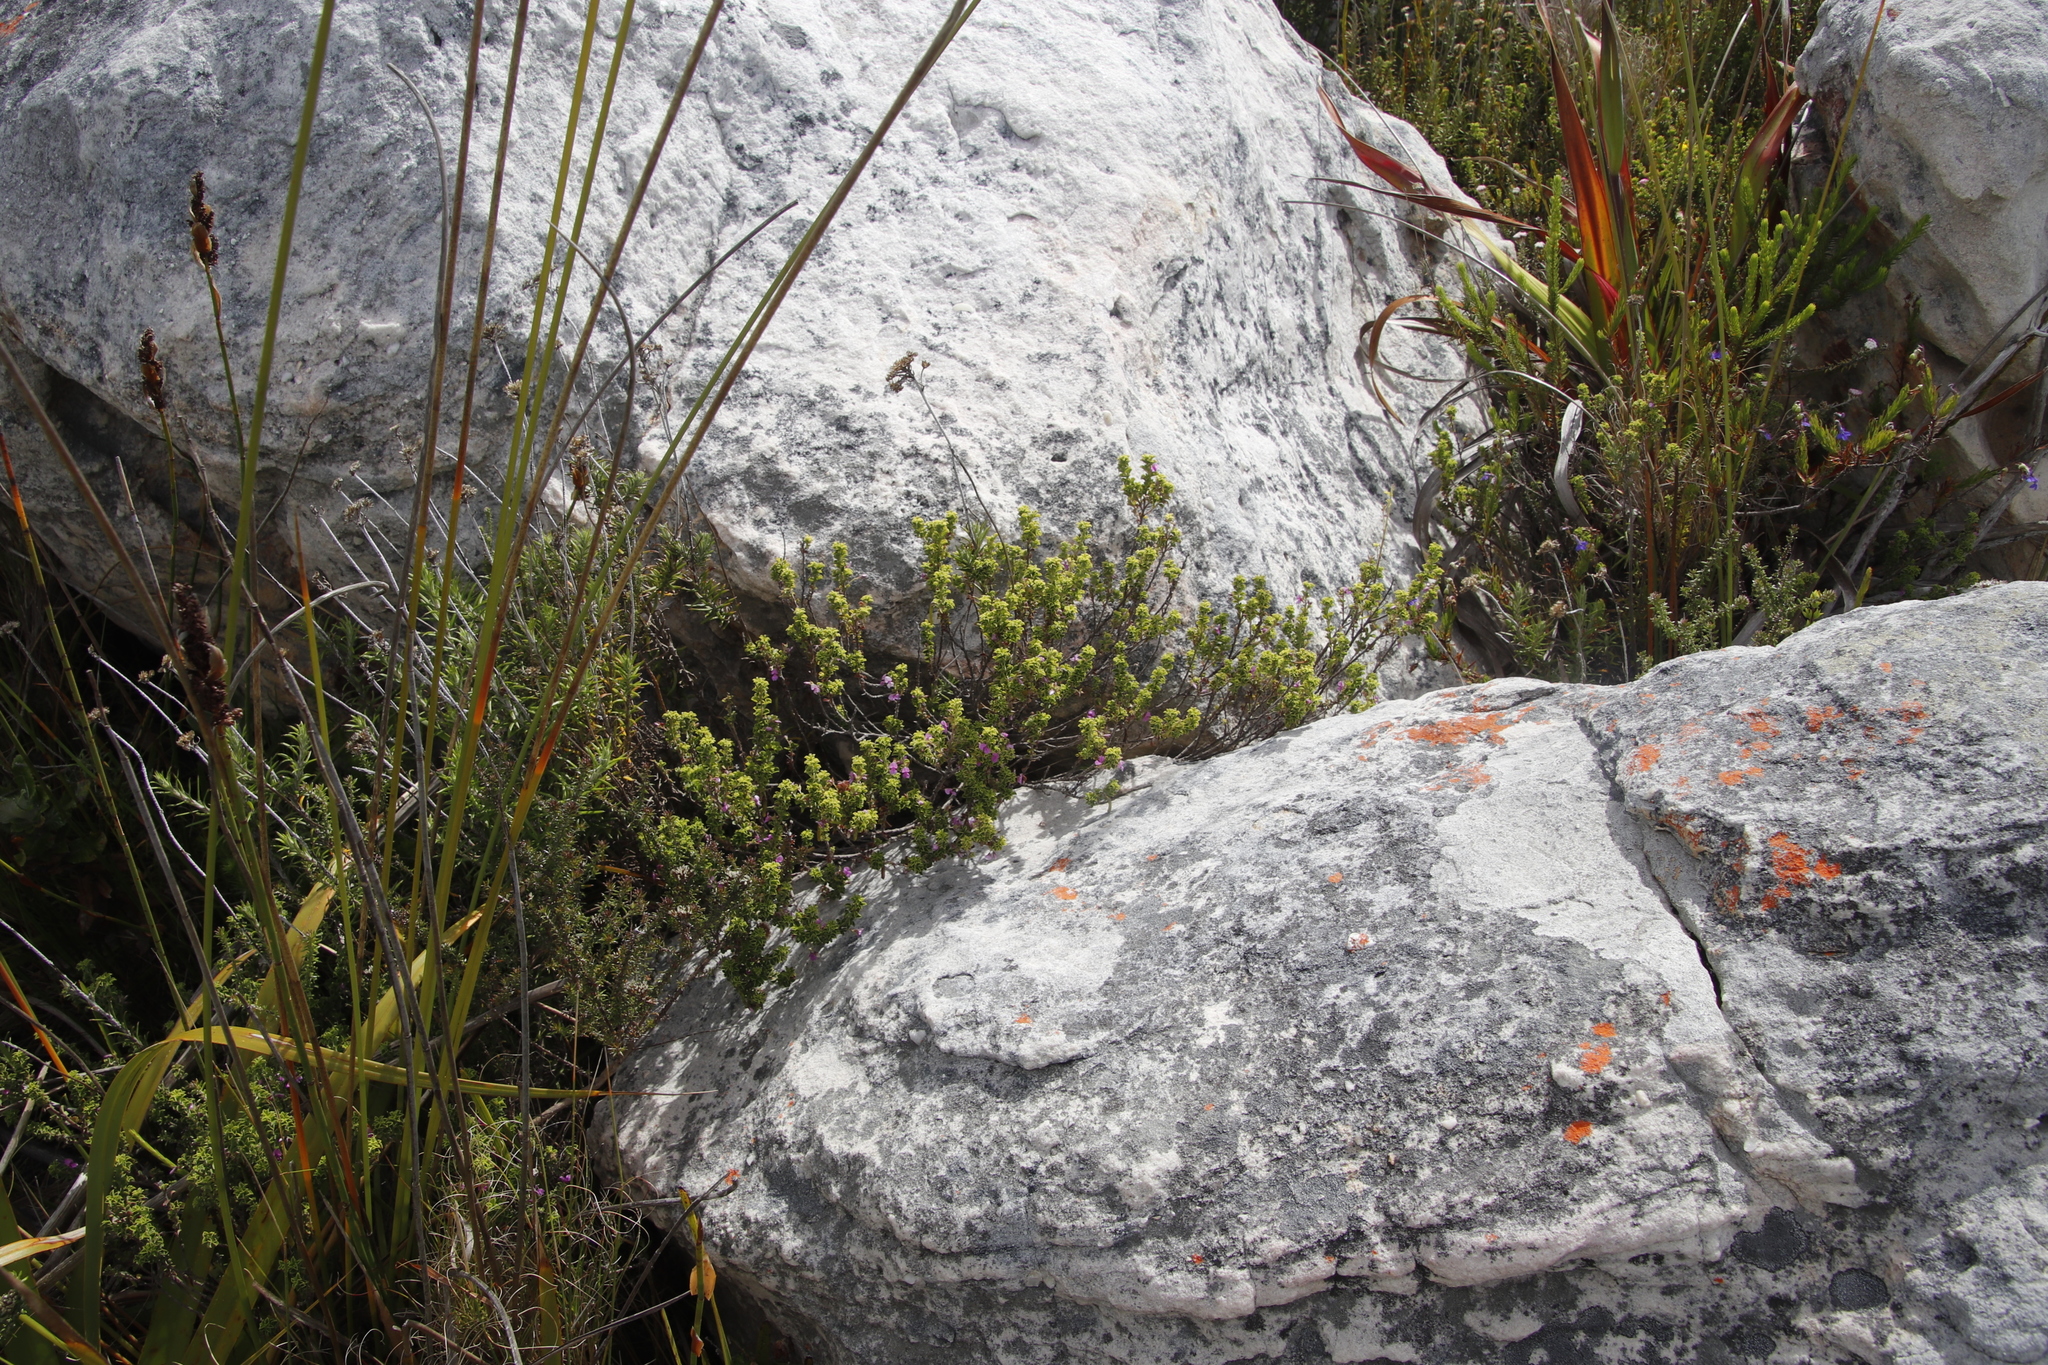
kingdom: Plantae
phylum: Tracheophyta
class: Magnoliopsida
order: Fabales
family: Fabaceae
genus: Indigofera
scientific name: Indigofera candolleana
